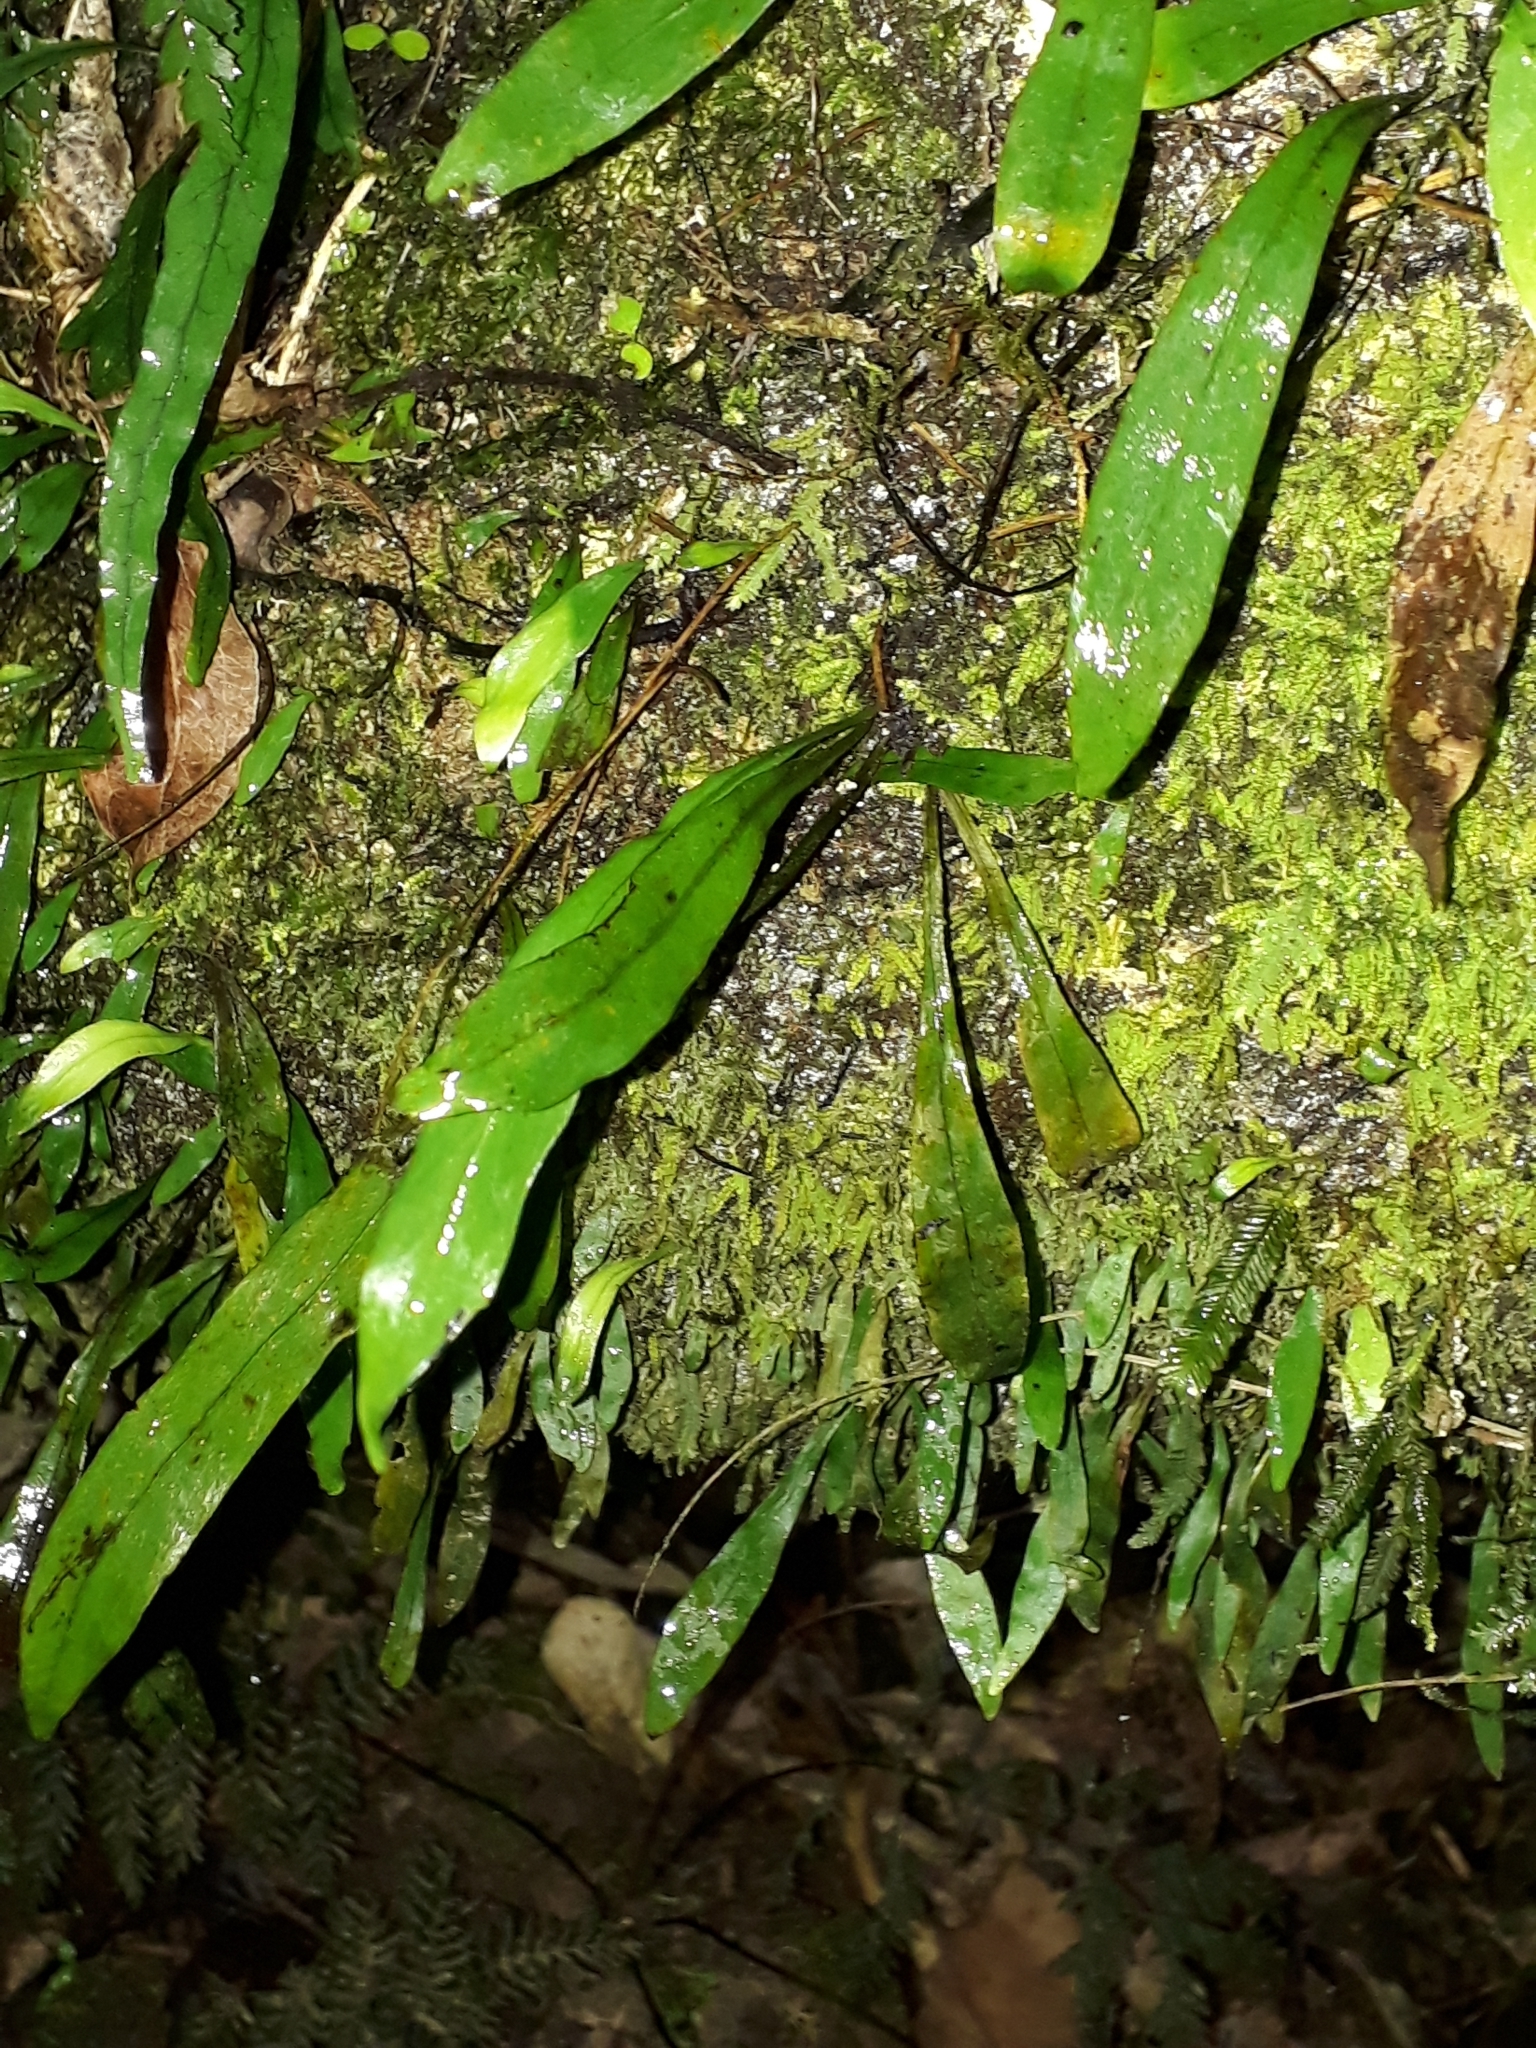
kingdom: Plantae
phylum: Tracheophyta
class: Polypodiopsida
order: Polypodiales
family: Polypodiaceae
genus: Loxogramme
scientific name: Loxogramme dictyopteris
